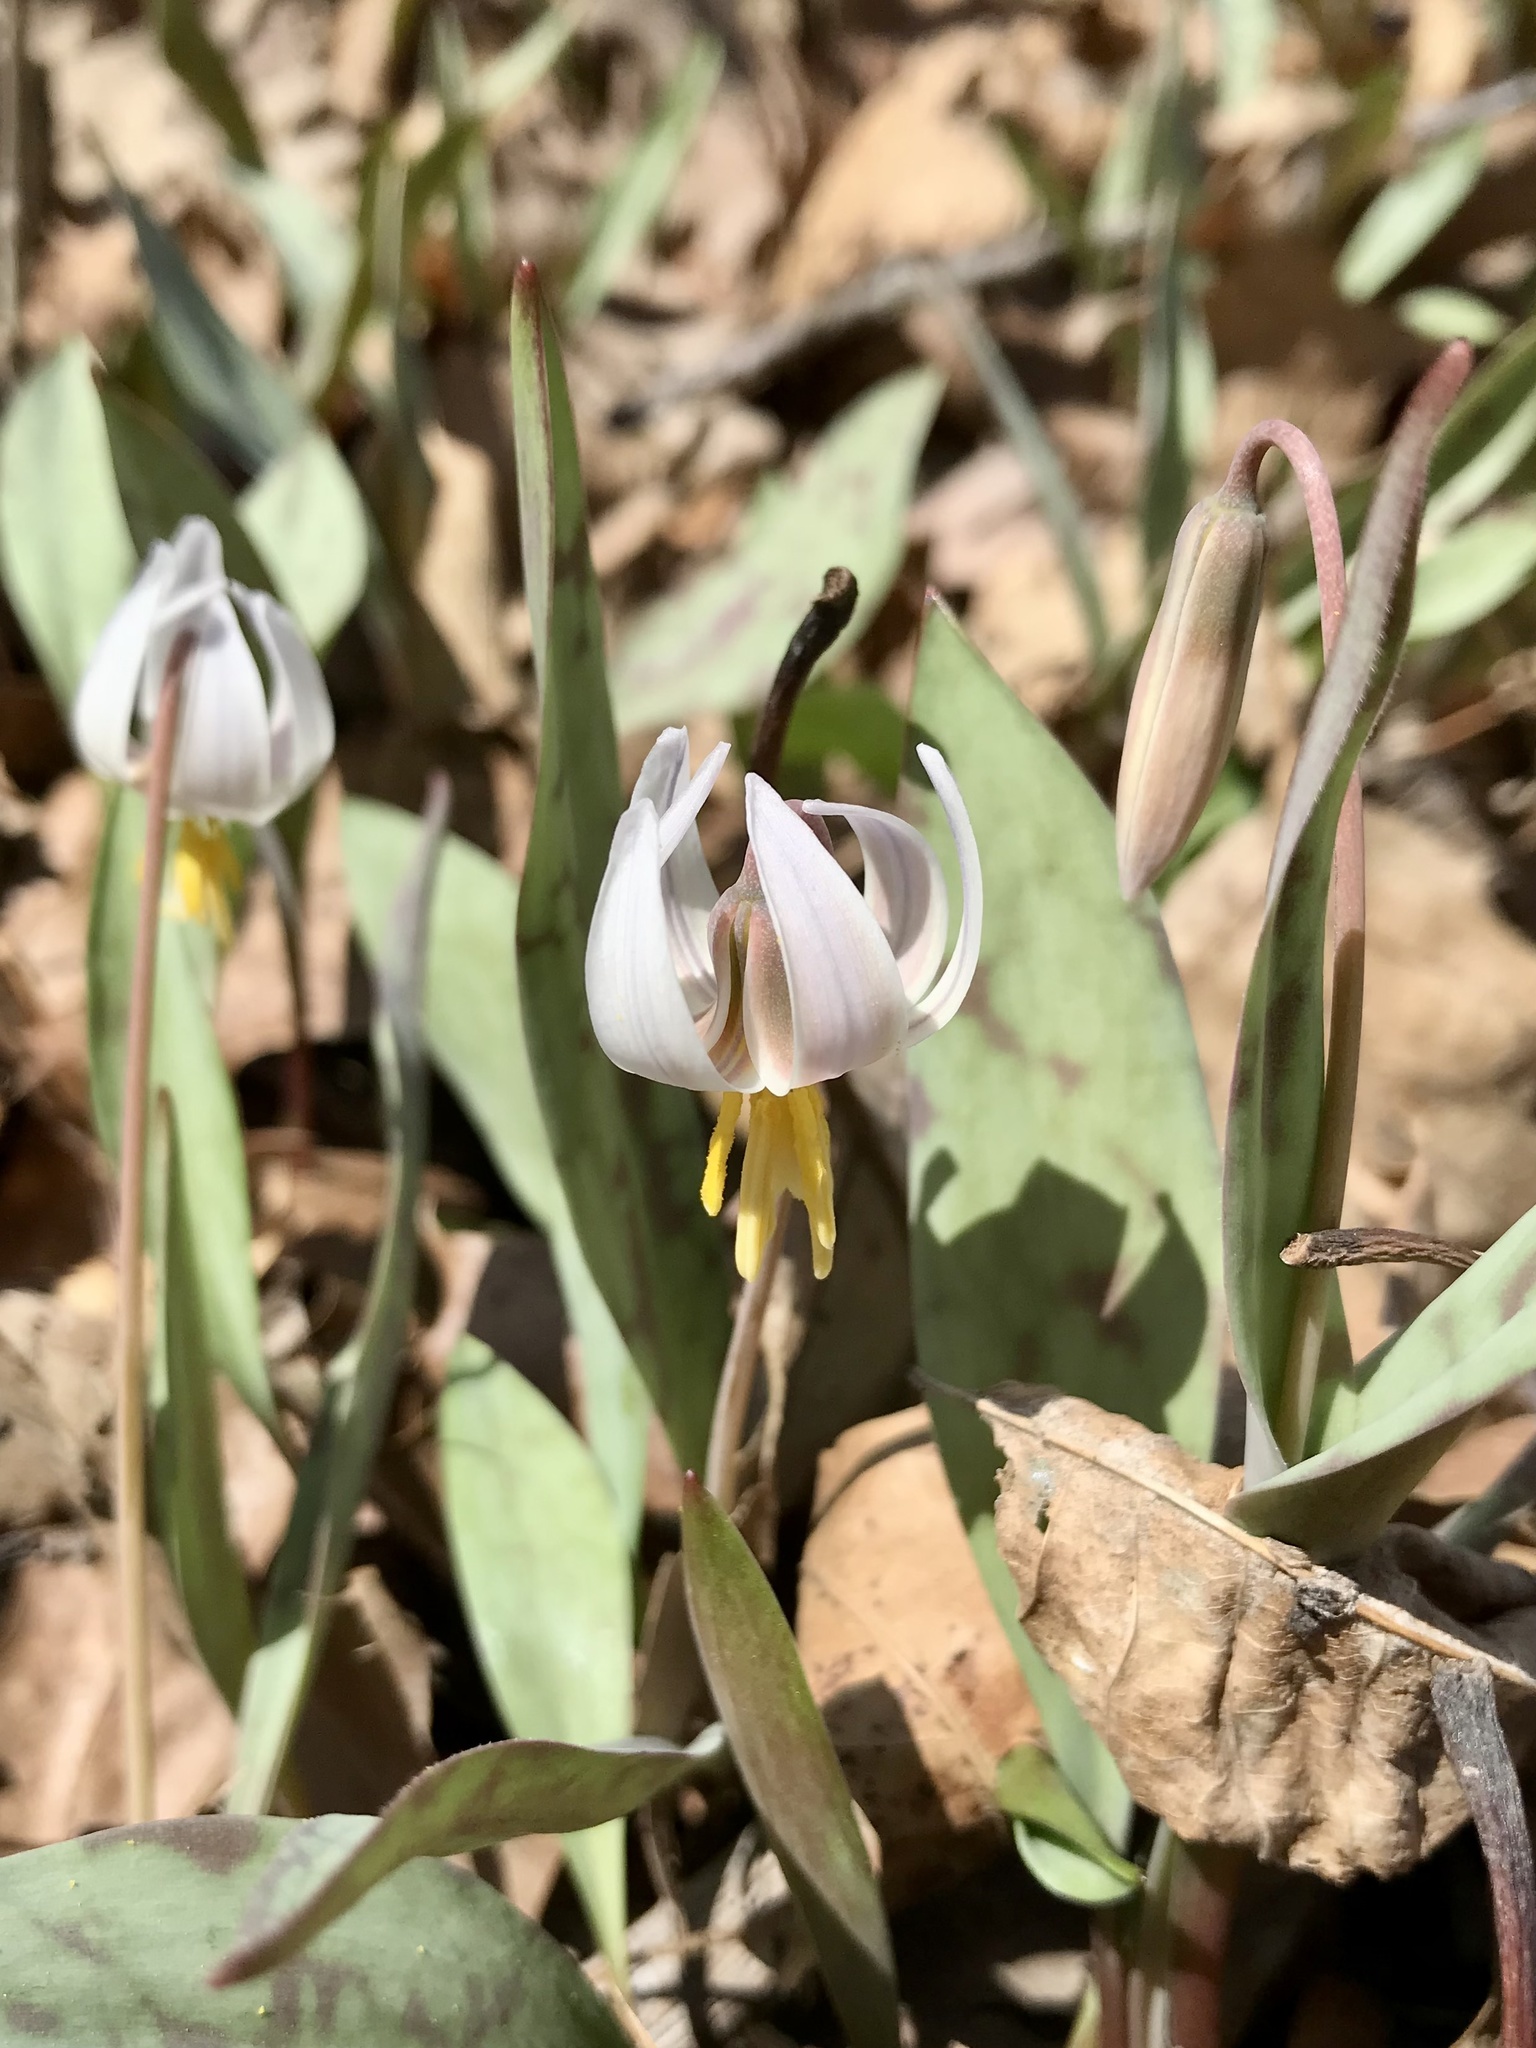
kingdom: Plantae
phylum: Tracheophyta
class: Liliopsida
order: Liliales
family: Liliaceae
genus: Erythronium
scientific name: Erythronium albidum
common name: White trout-lily
